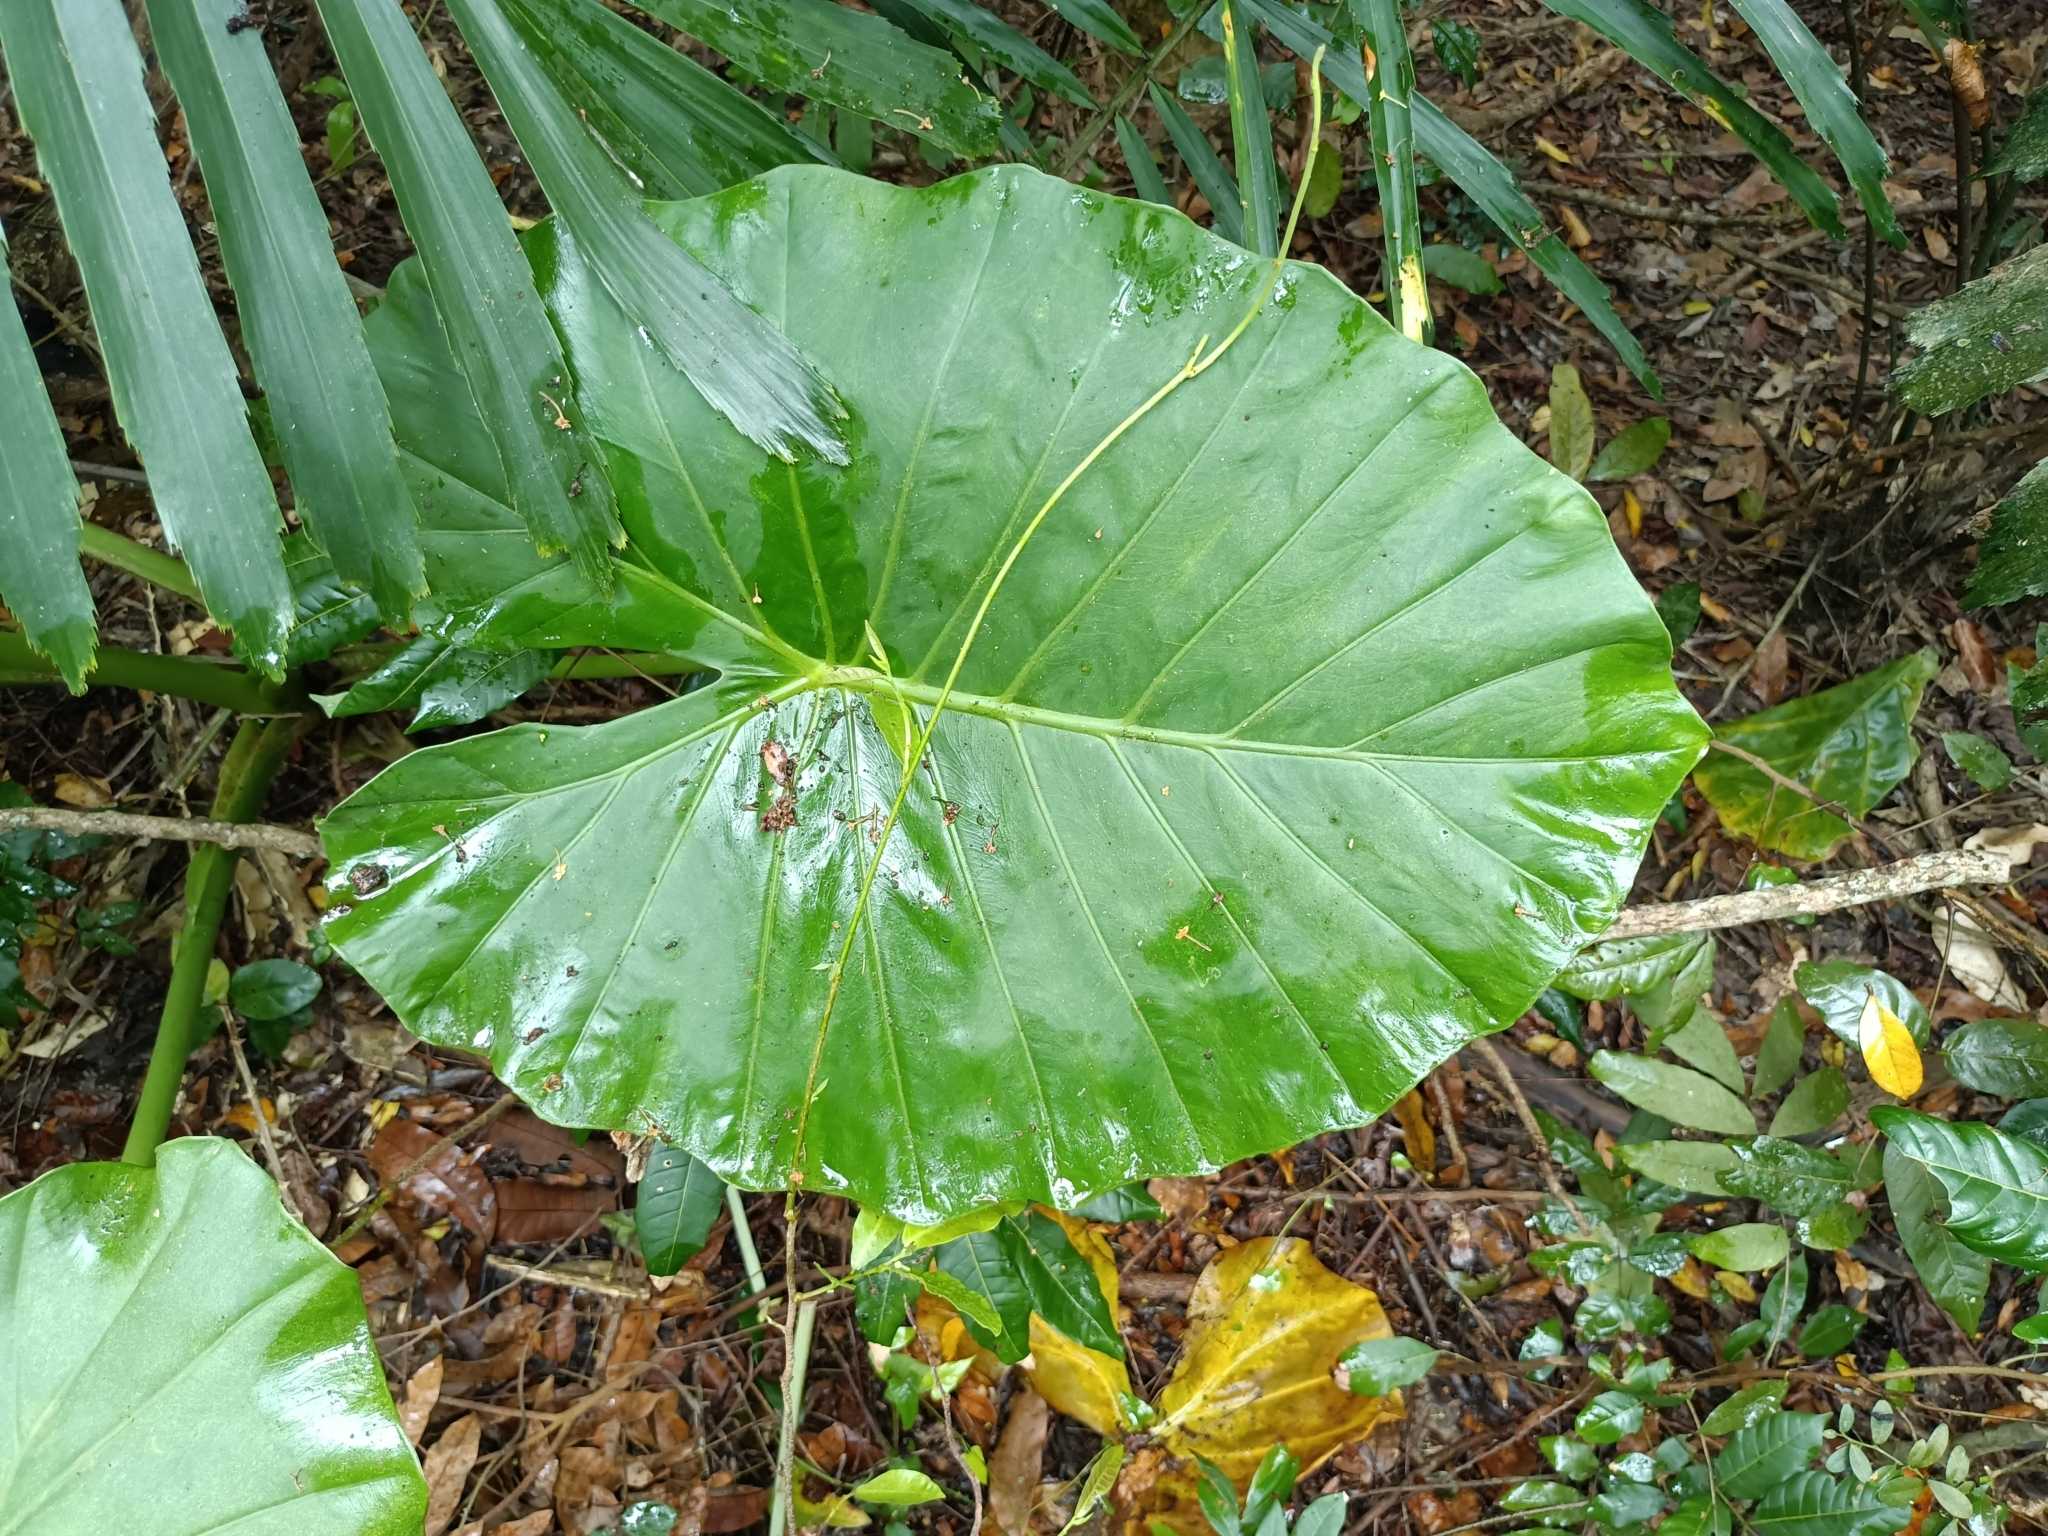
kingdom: Plantae
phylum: Tracheophyta
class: Liliopsida
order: Alismatales
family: Araceae
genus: Alocasia
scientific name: Alocasia odora
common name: Asian taro
